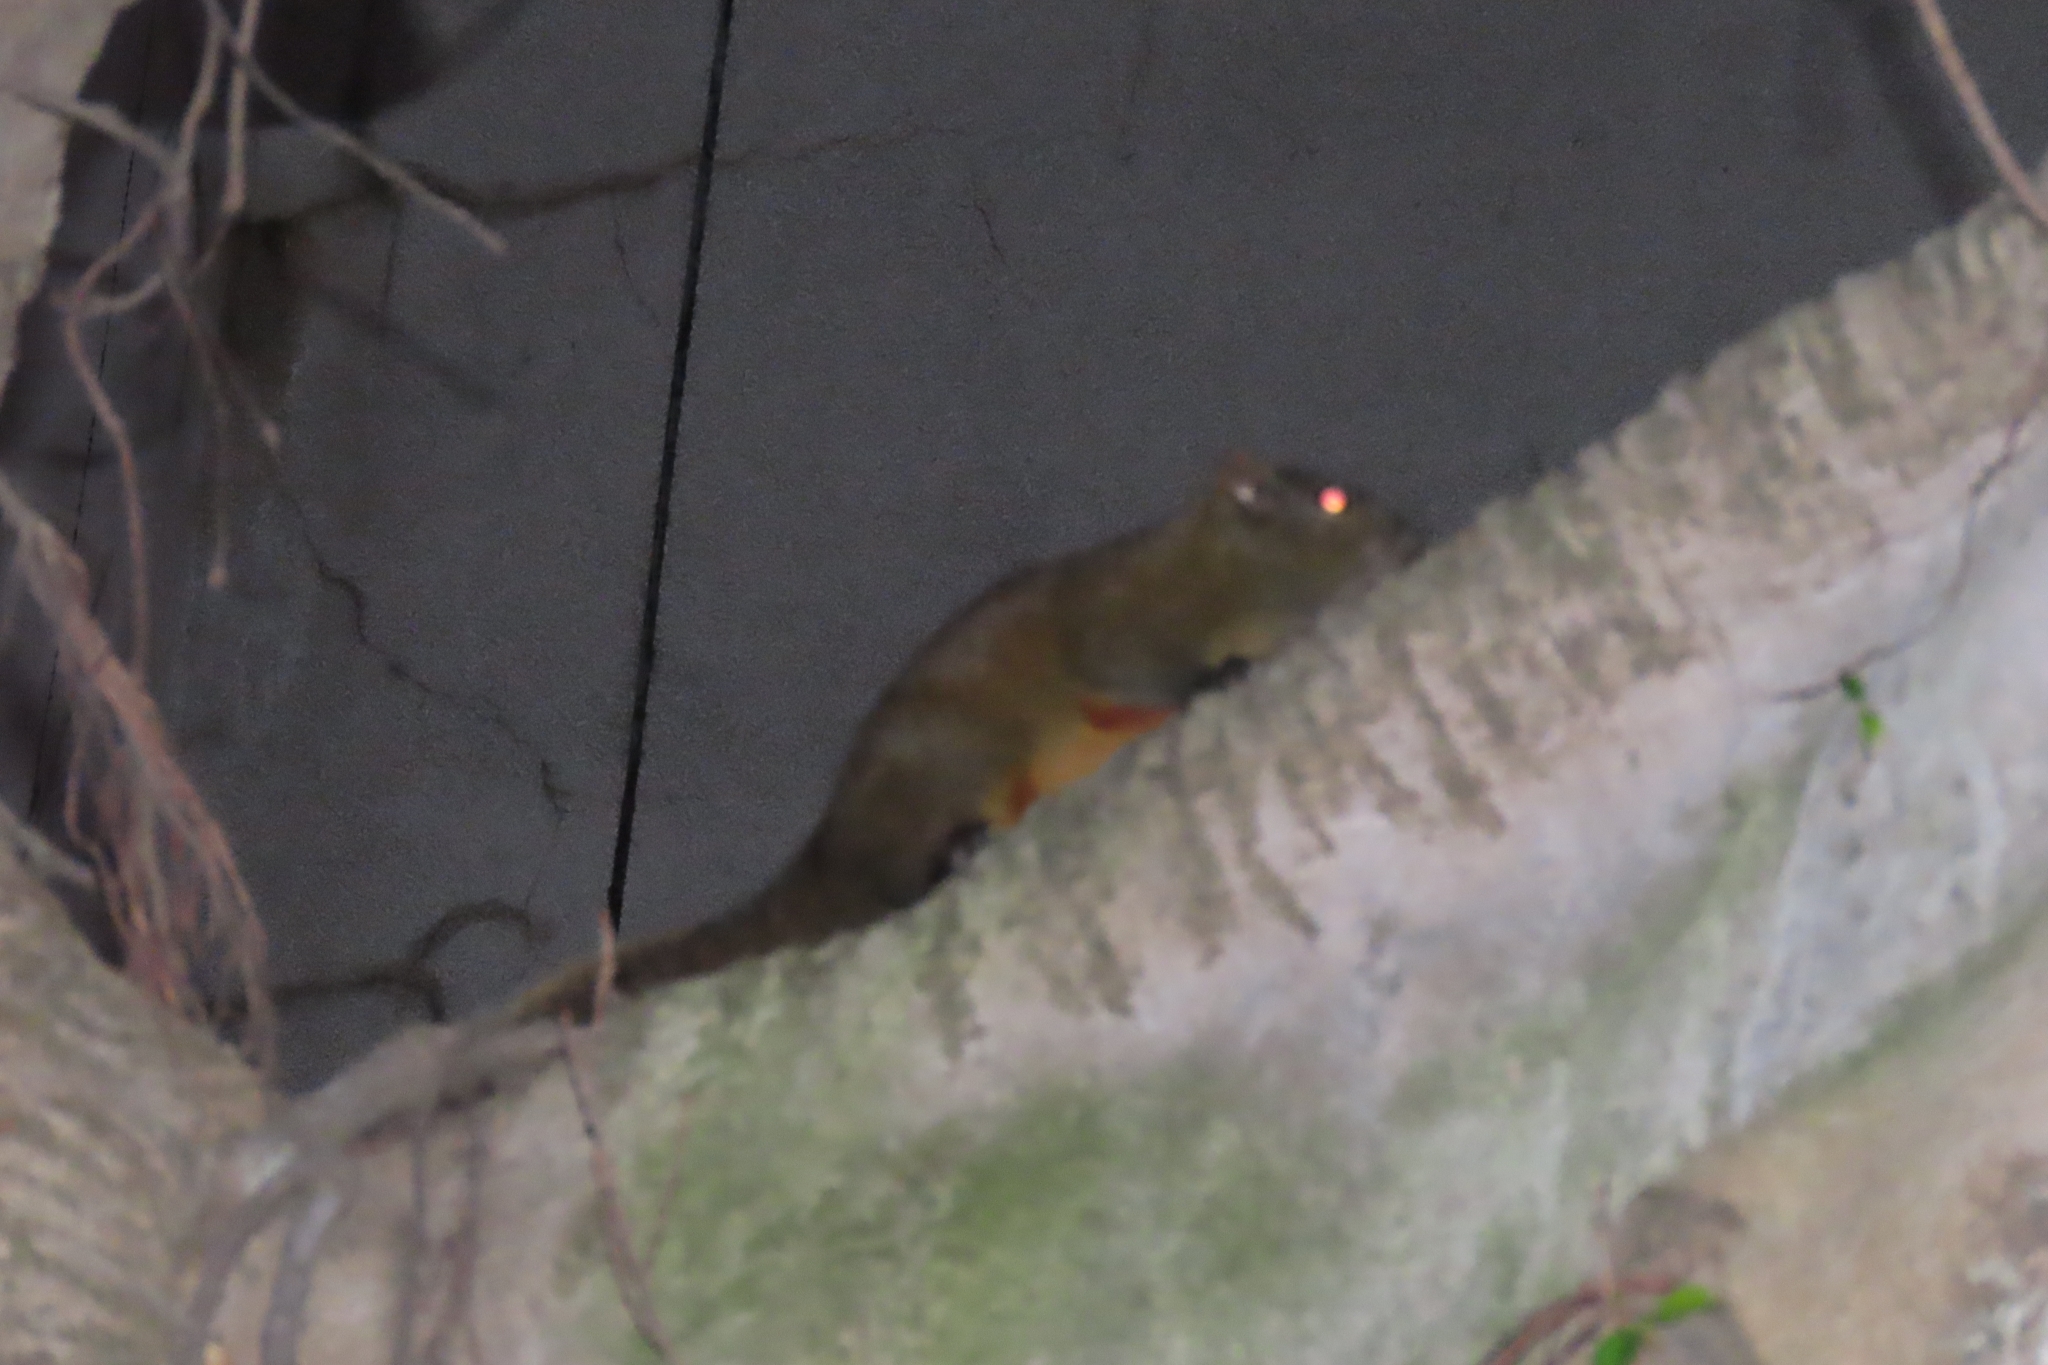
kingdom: Animalia
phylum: Chordata
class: Mammalia
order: Rodentia
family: Sciuridae
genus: Callosciurus
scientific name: Callosciurus erythraeus
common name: Pallas's squirrel
